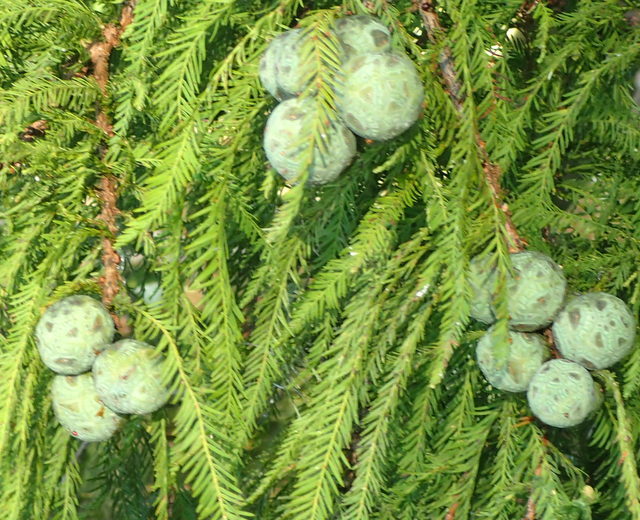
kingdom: Plantae
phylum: Tracheophyta
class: Pinopsida
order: Pinales
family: Cupressaceae
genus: Taxodium
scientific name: Taxodium distichum
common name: Bald cypress
